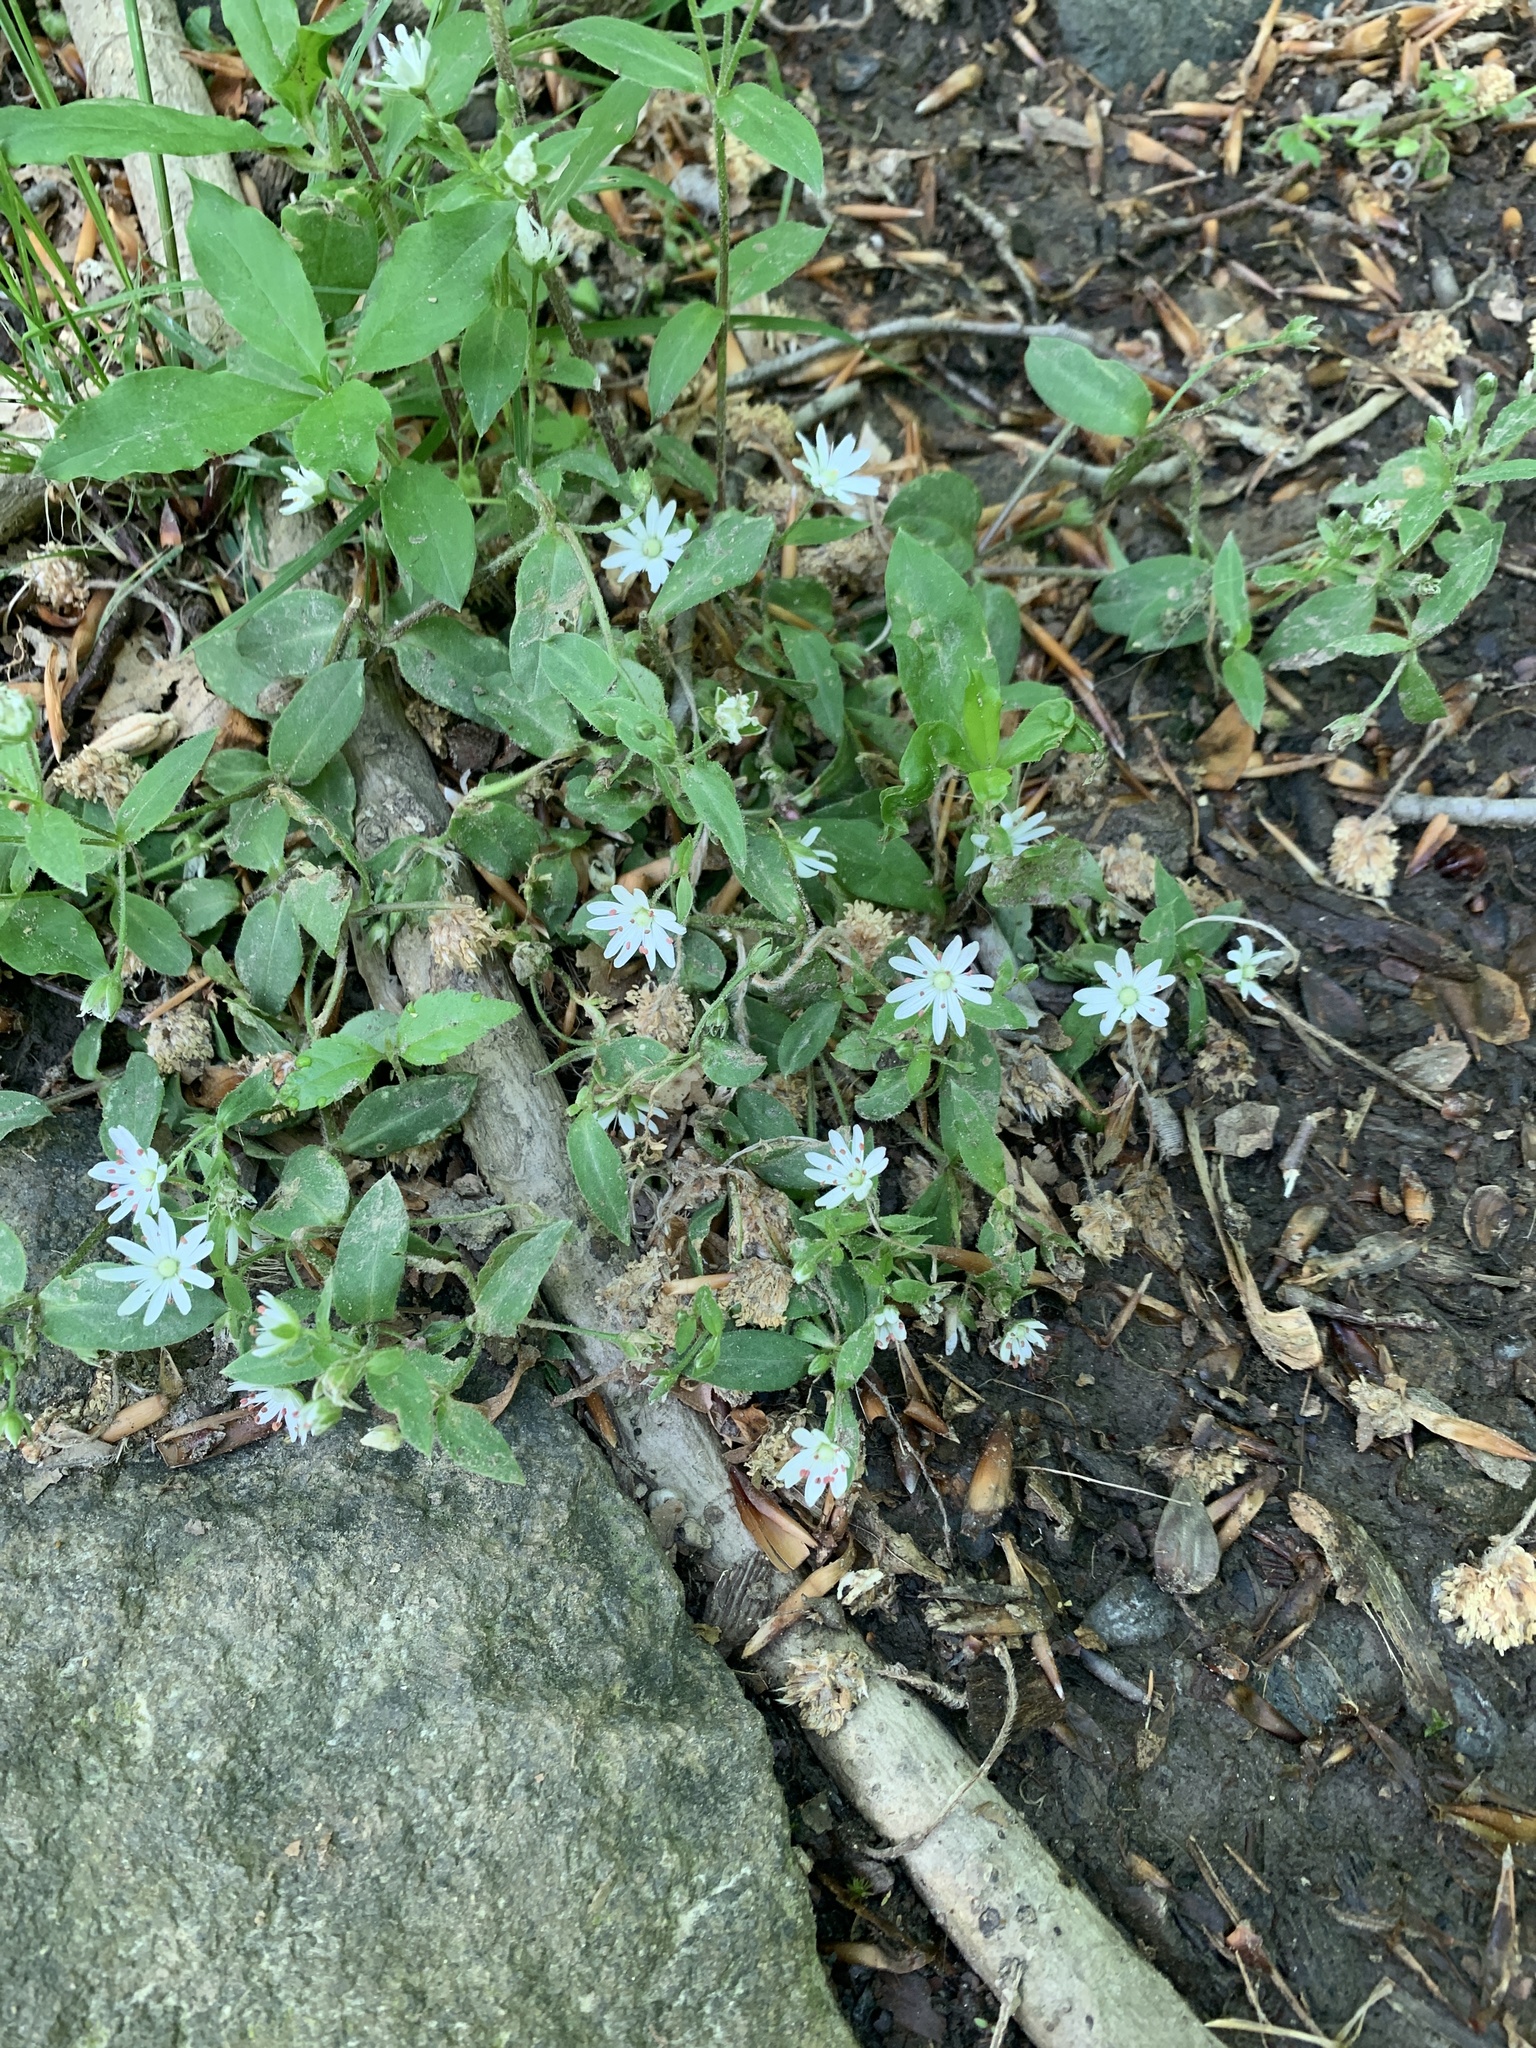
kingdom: Plantae
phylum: Tracheophyta
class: Magnoliopsida
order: Caryophyllales
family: Caryophyllaceae
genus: Stellaria
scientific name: Stellaria pubera
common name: Star chickweed
